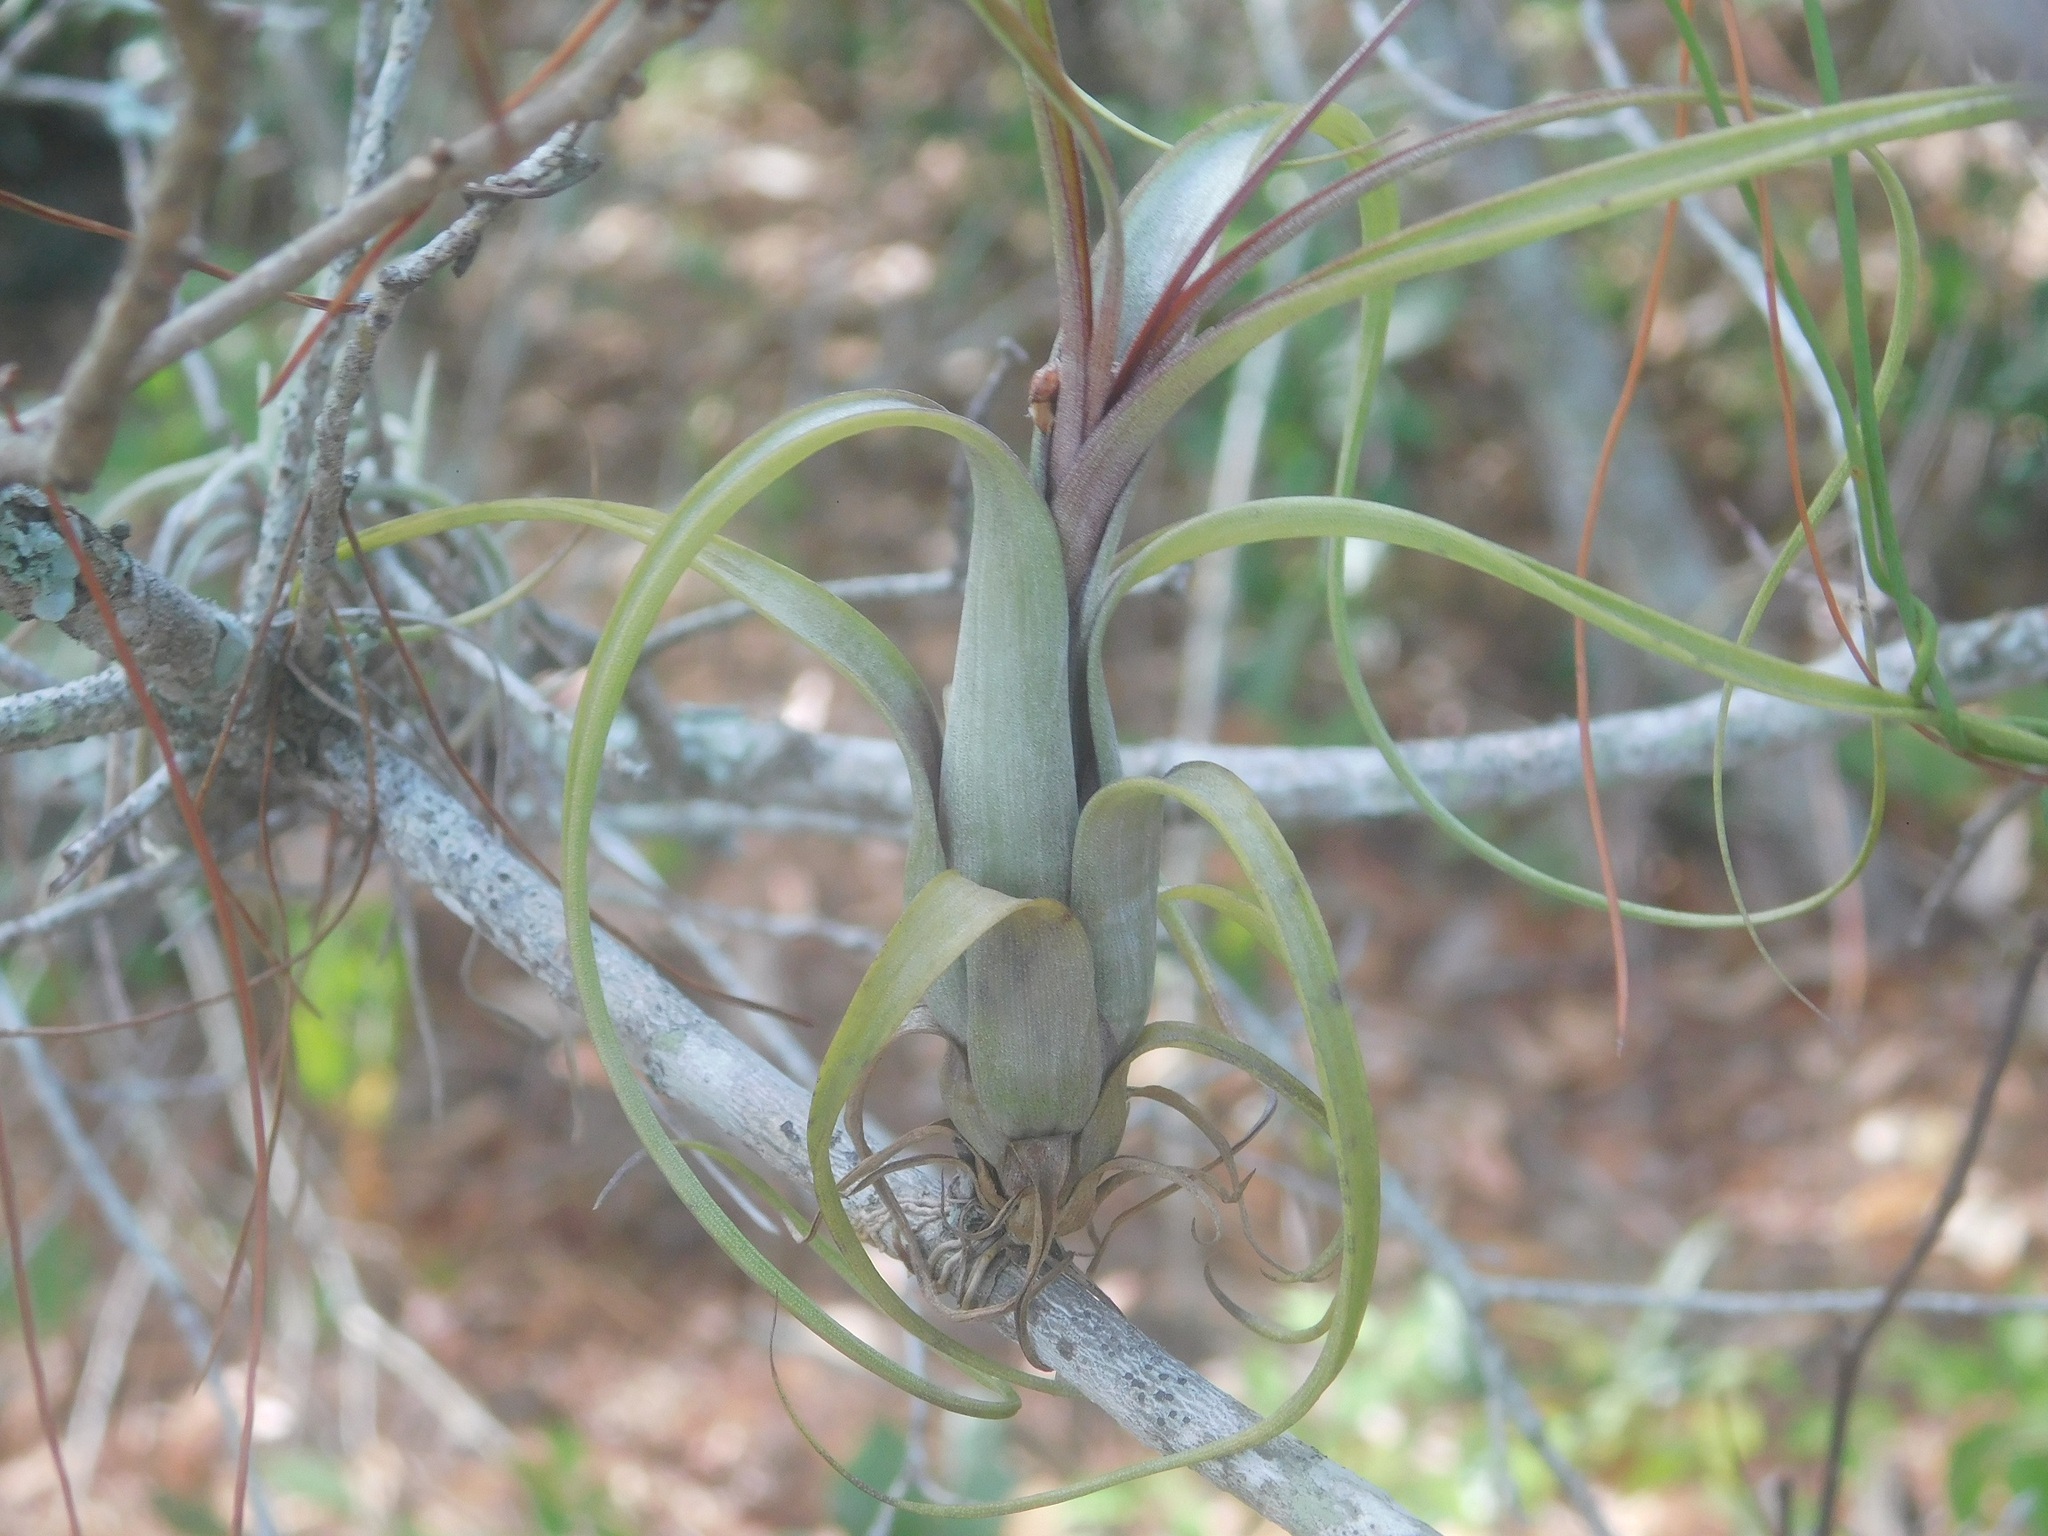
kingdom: Plantae
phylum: Tracheophyta
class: Liliopsida
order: Poales
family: Bromeliaceae
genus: Tillandsia
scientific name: Tillandsia balbisiana
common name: Northern needleleaf
